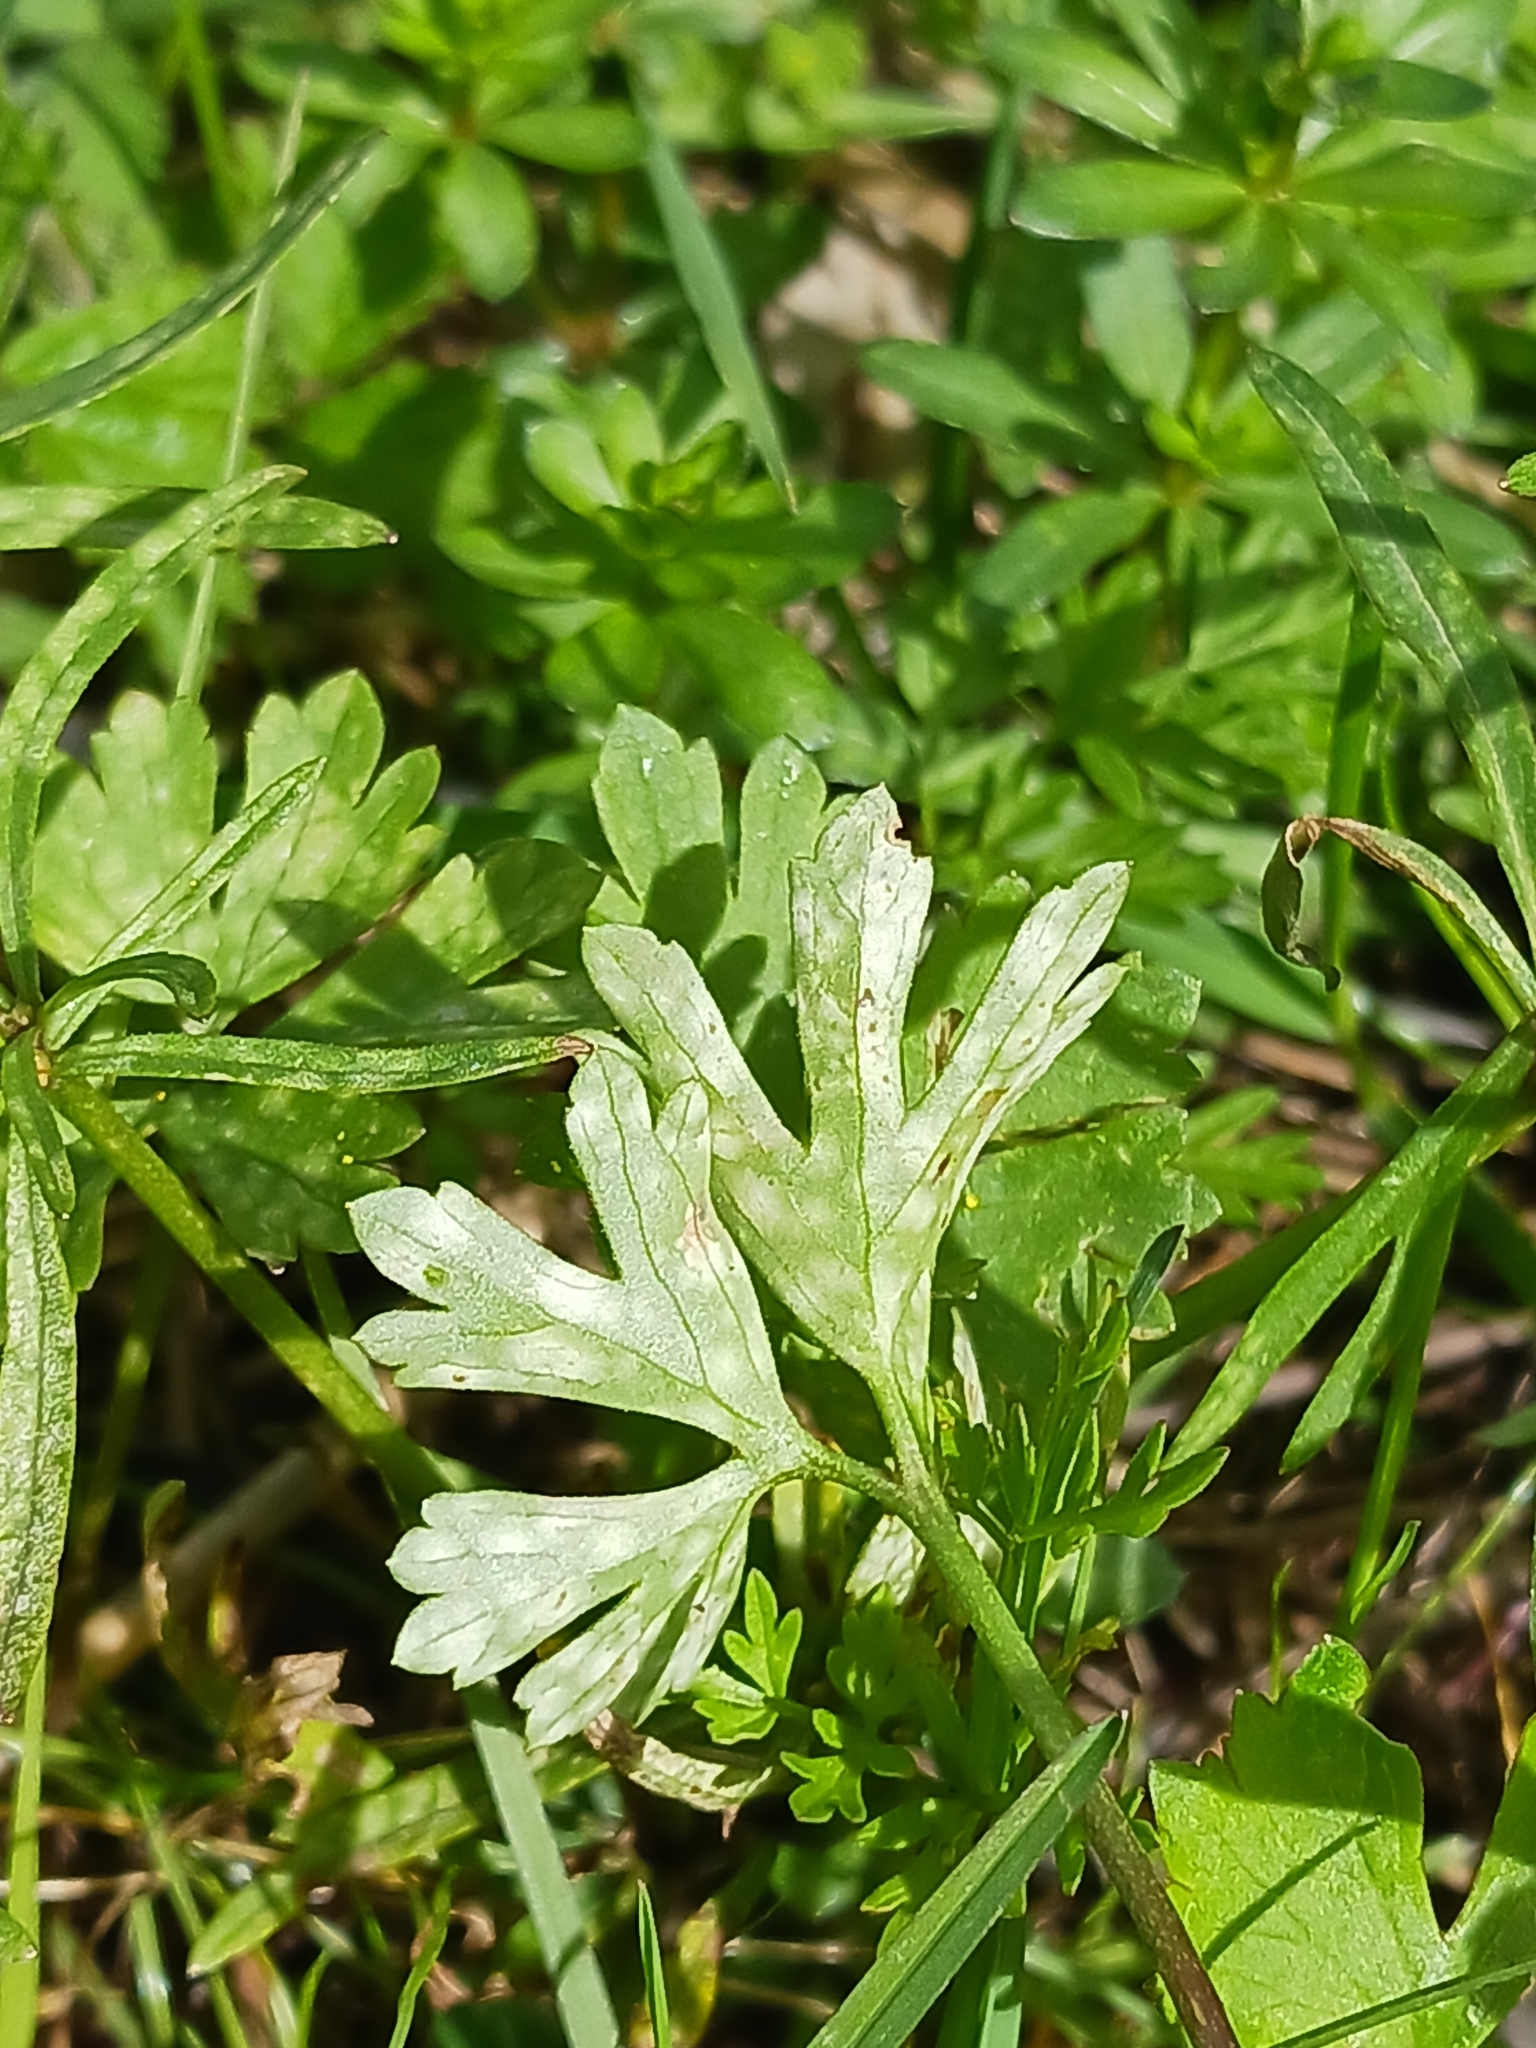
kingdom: Fungi
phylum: Basidiomycota
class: Exobasidiomycetes
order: Entylomatales
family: Entylomataceae
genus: Entyloma
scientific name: Entyloma ranunculorum
